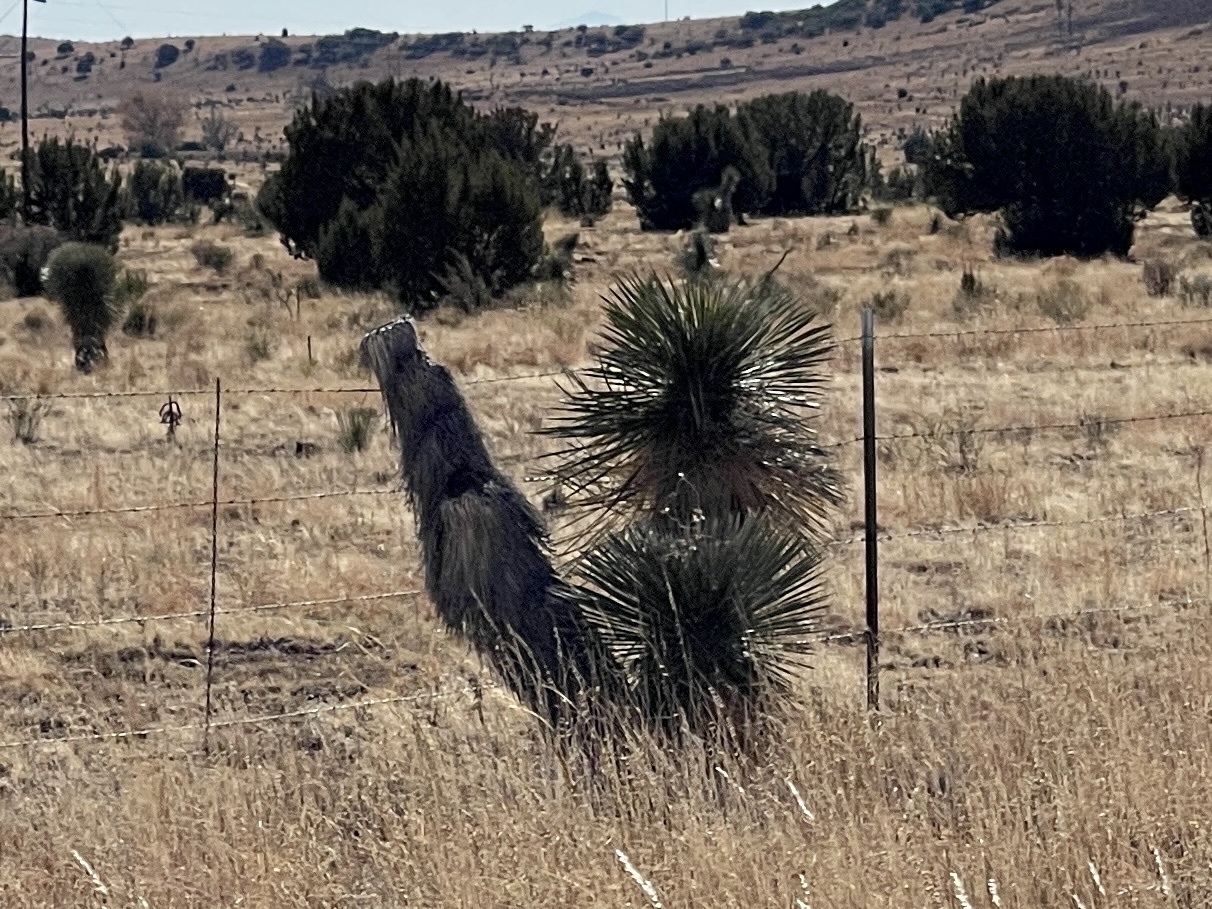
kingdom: Plantae
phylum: Tracheophyta
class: Liliopsida
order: Asparagales
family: Asparagaceae
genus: Yucca
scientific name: Yucca elata
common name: Palmella
